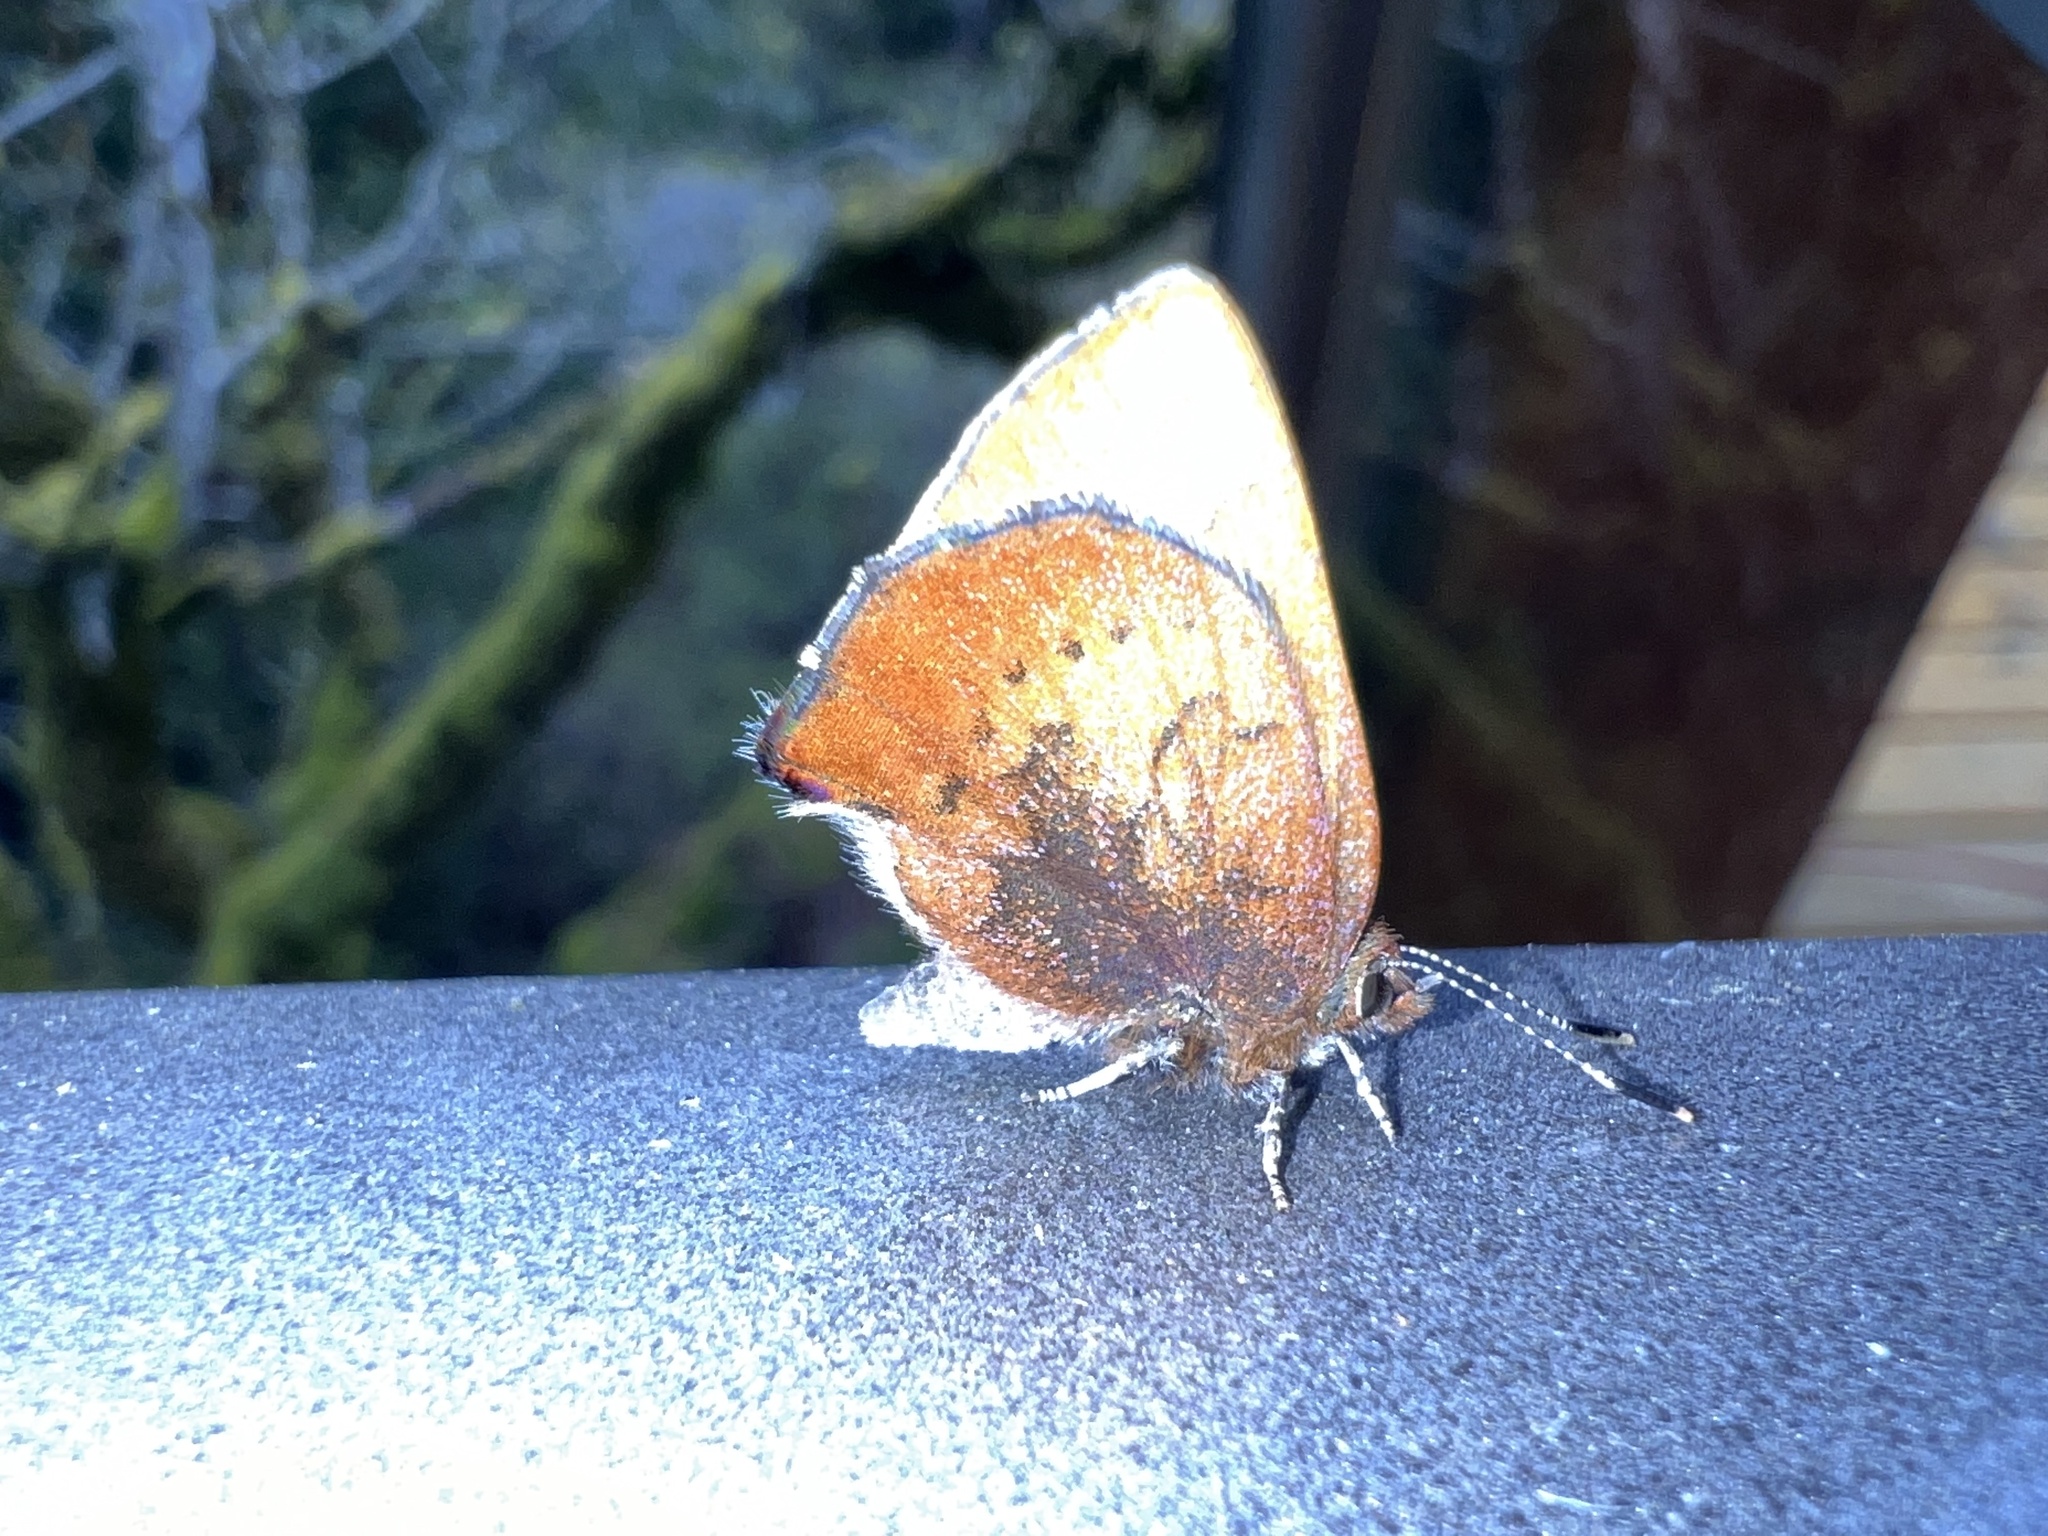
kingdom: Animalia
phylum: Arthropoda
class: Insecta
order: Lepidoptera
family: Lycaenidae
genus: Incisalia
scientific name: Incisalia irioides
